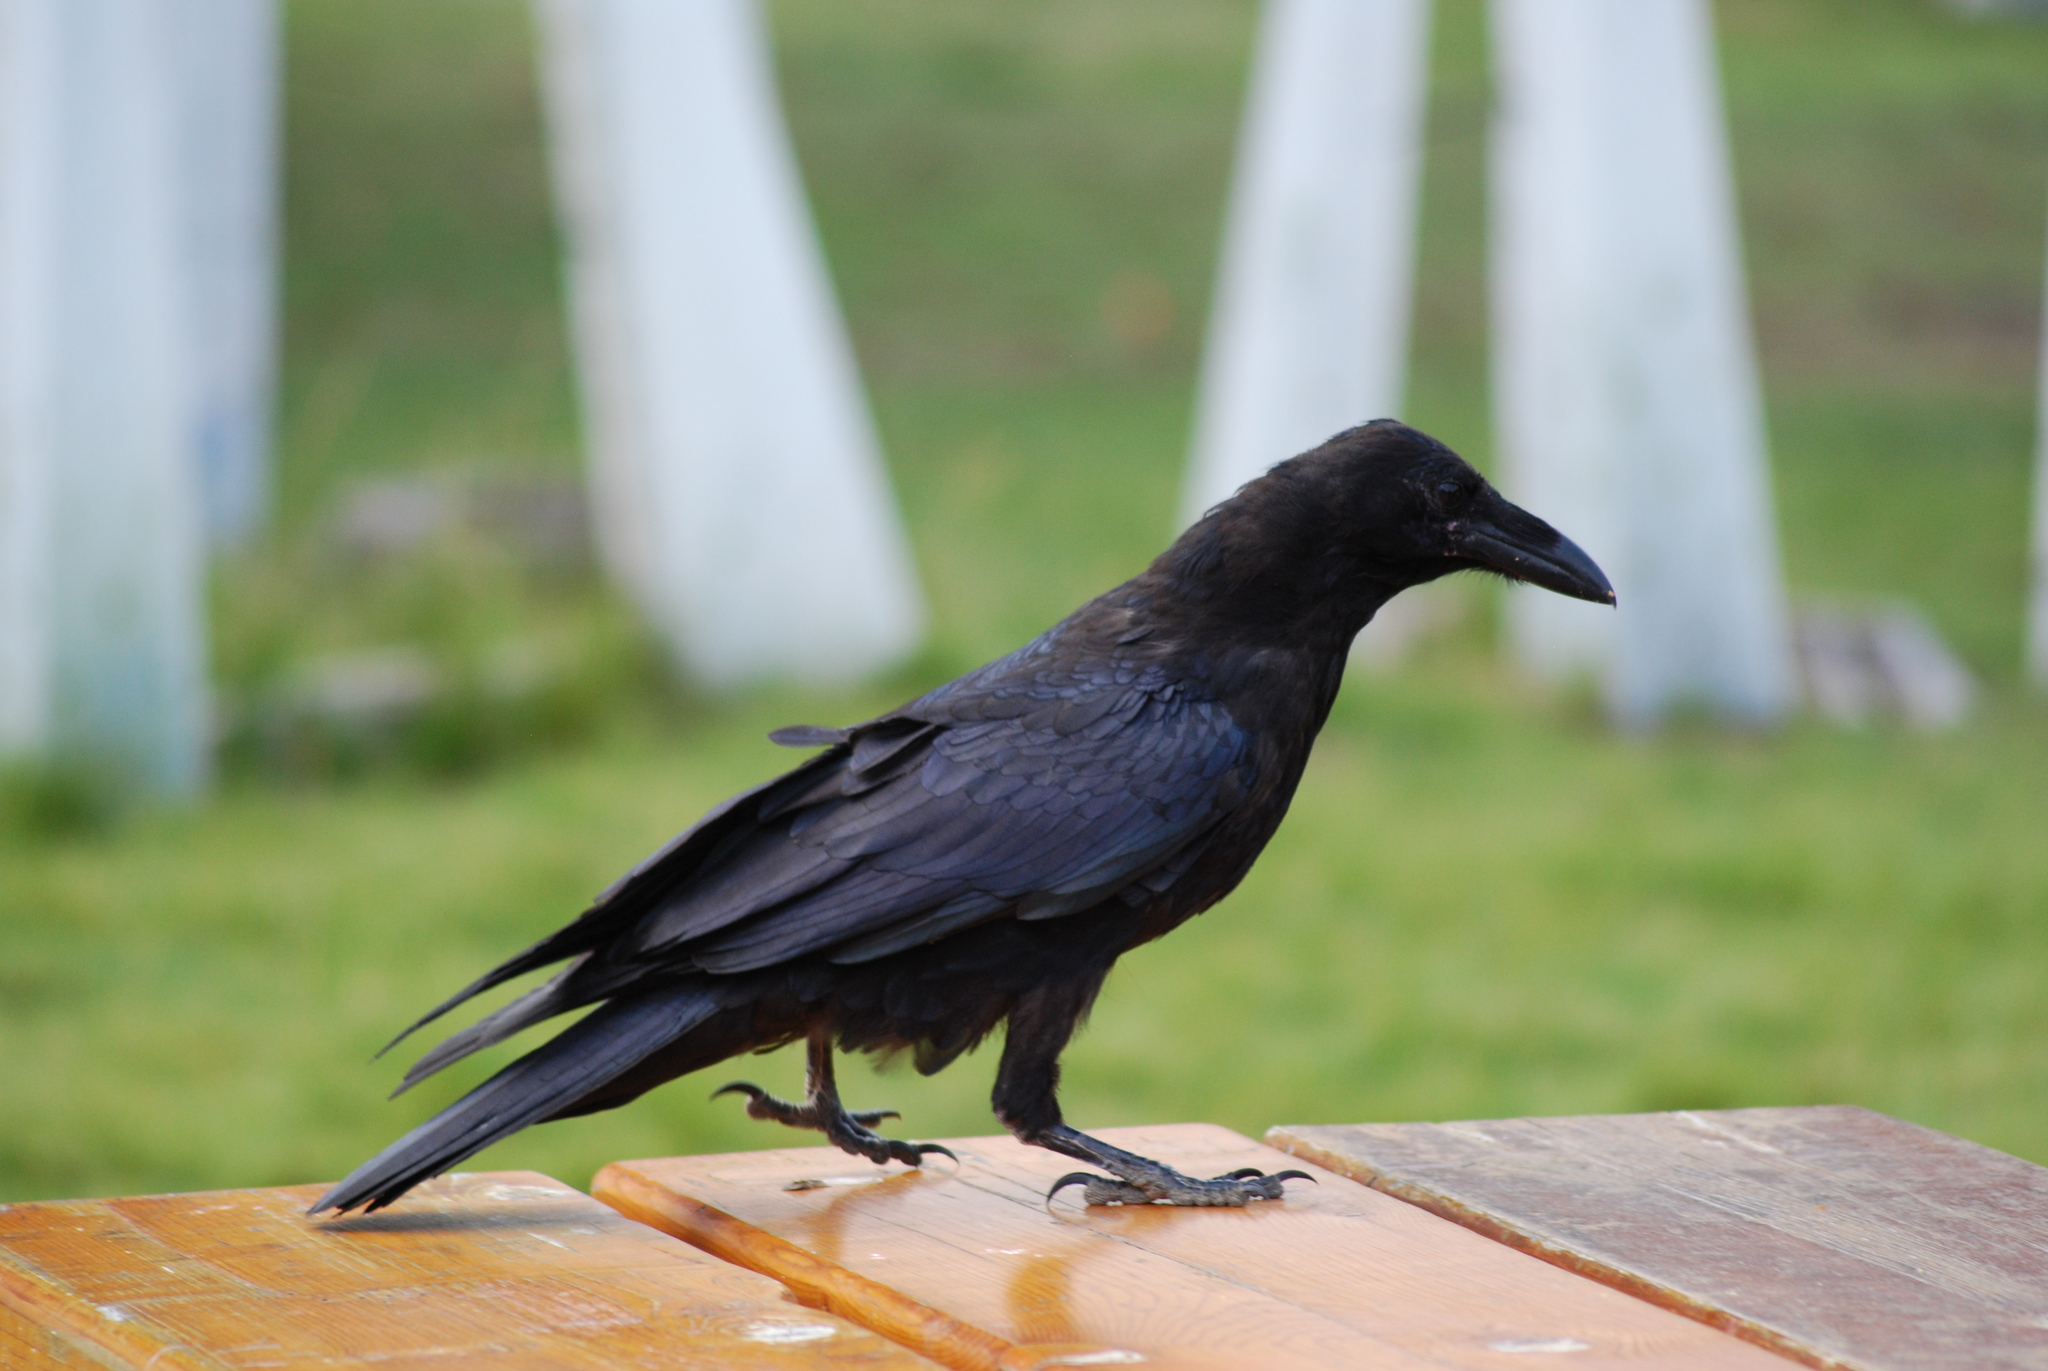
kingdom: Animalia
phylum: Chordata
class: Aves
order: Passeriformes
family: Corvidae
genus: Corvus
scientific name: Corvus corax
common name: Common raven
